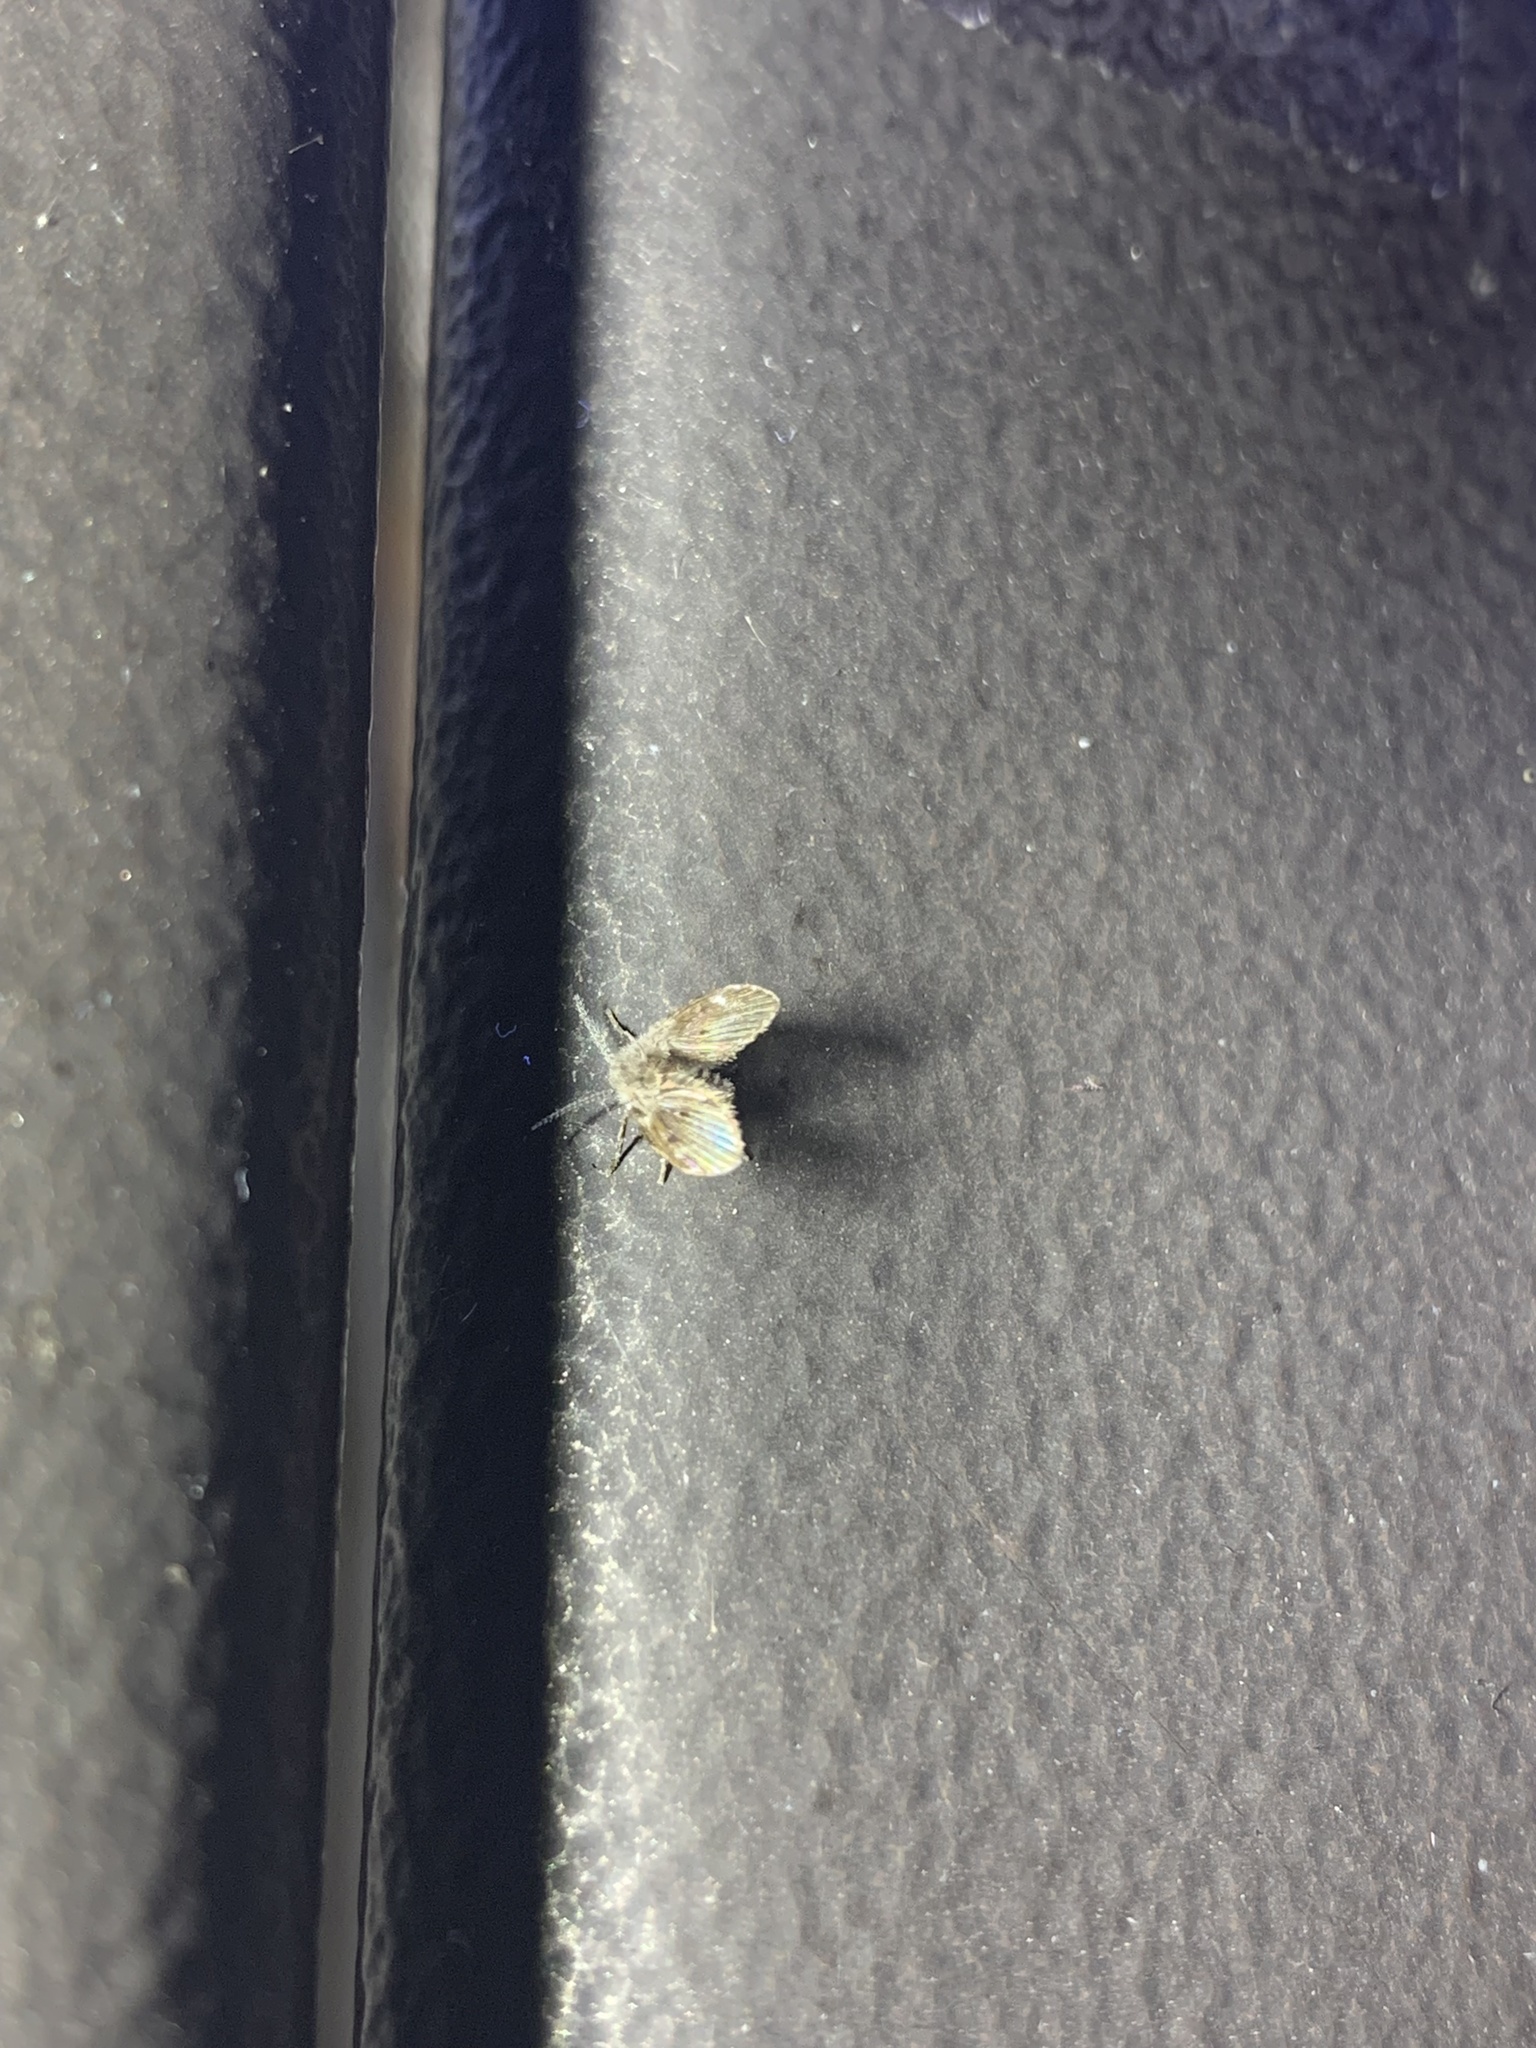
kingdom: Animalia
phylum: Arthropoda
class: Insecta
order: Diptera
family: Psychodidae
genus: Clogmia
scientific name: Clogmia albipunctatus
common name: White-spotted moth fly
